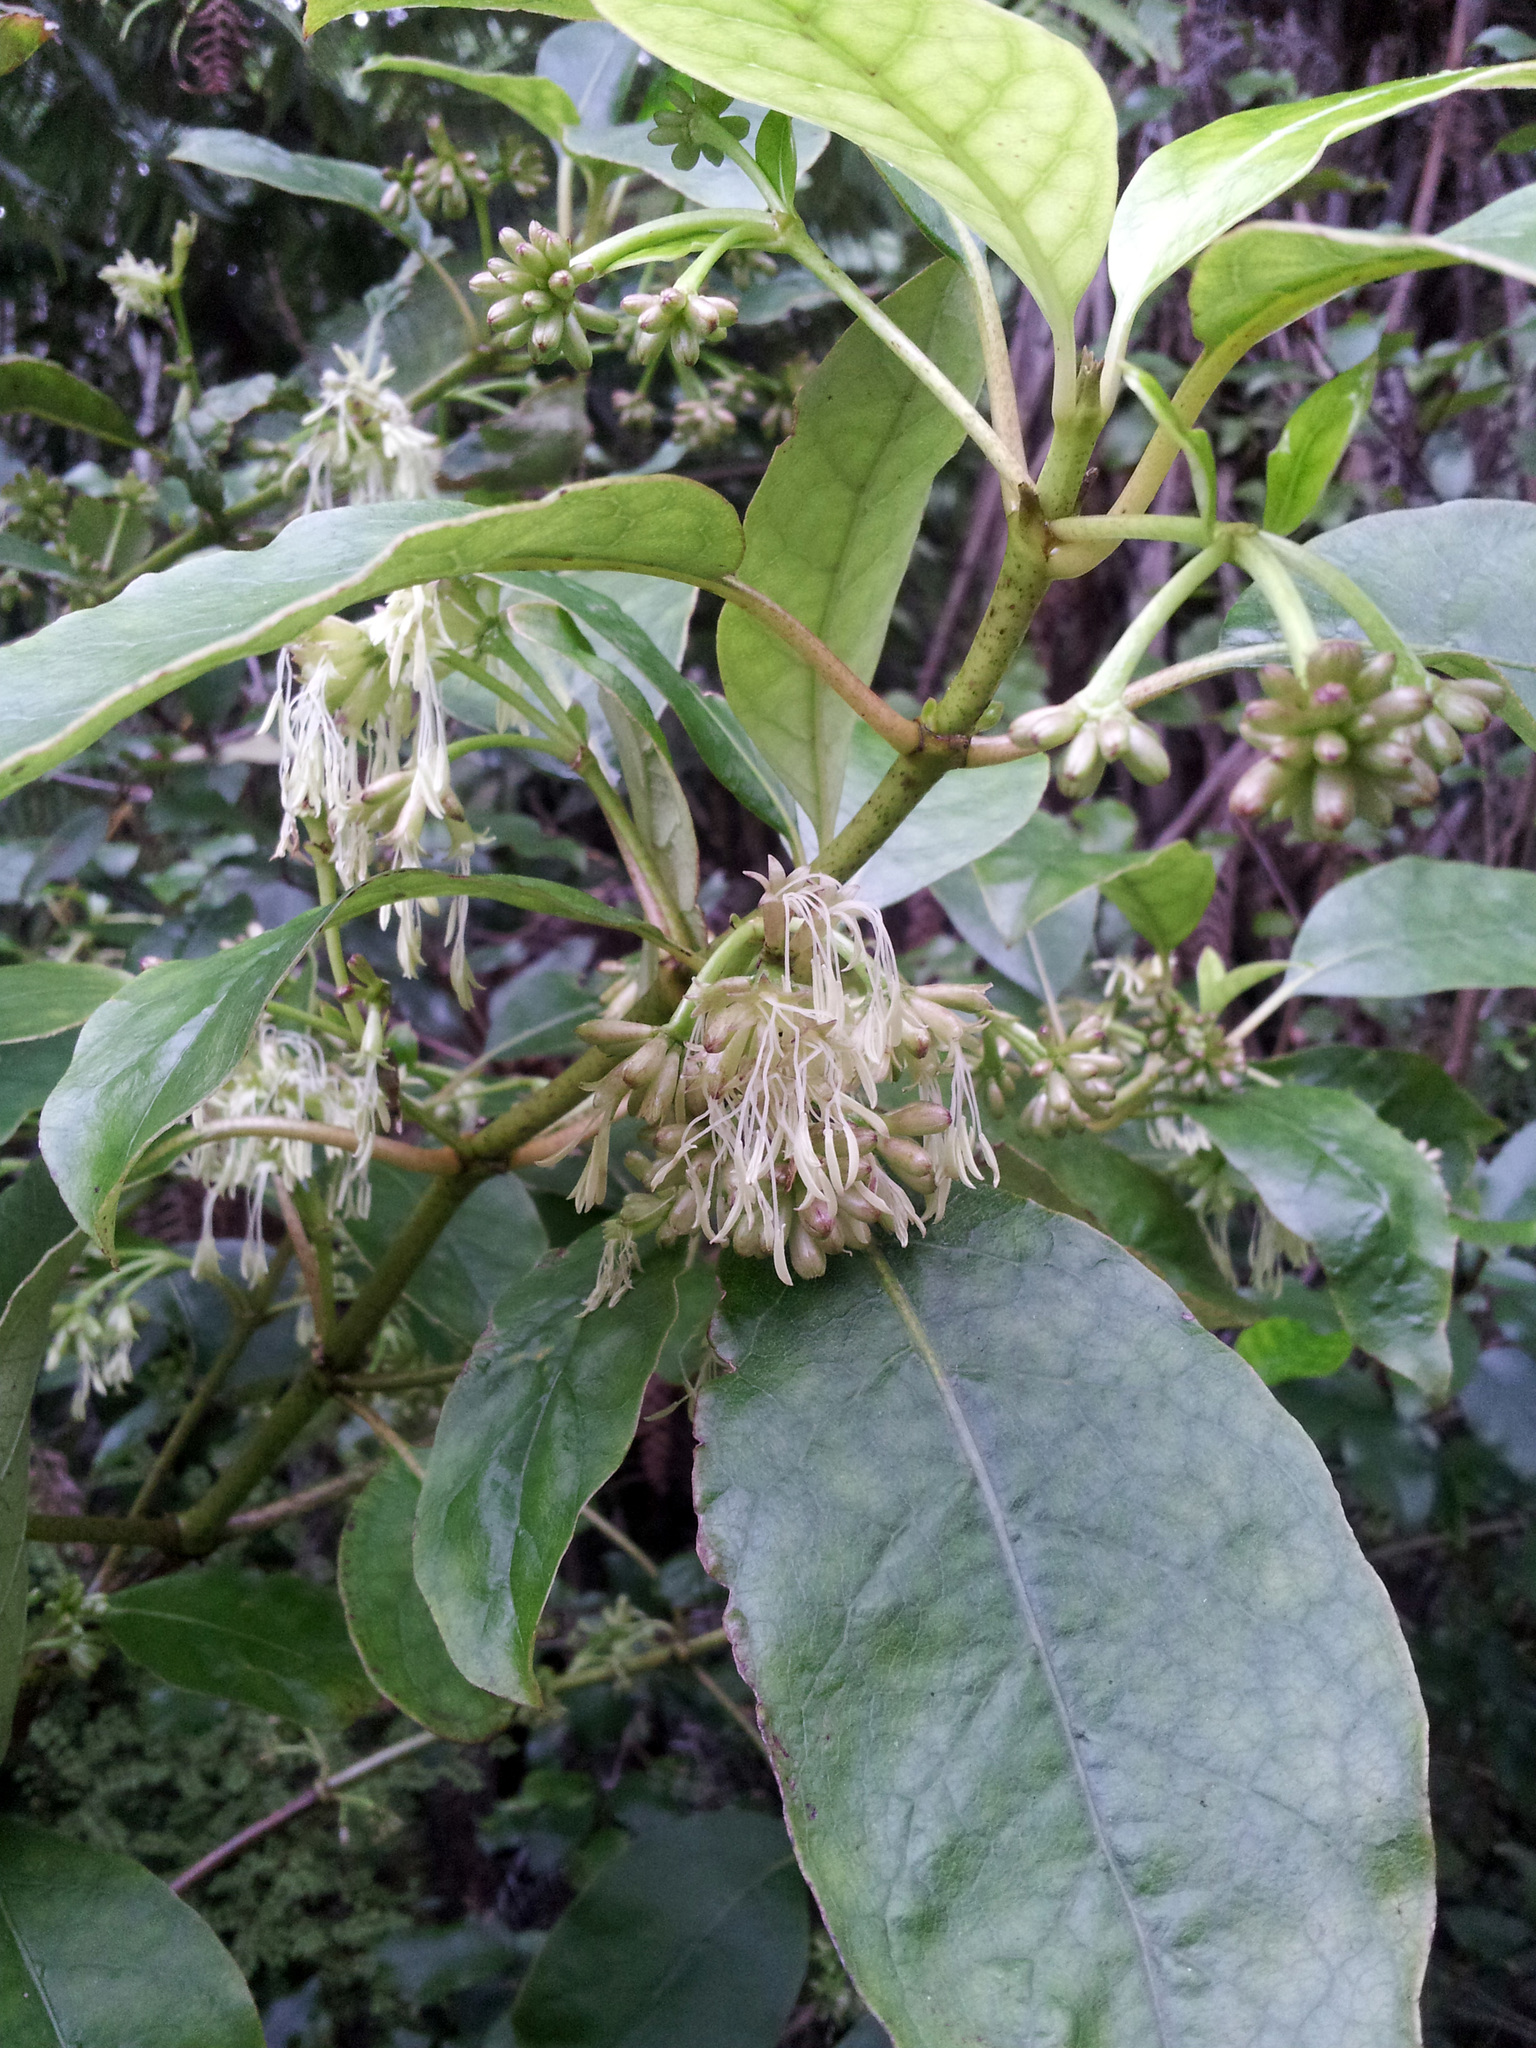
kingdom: Plantae
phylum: Tracheophyta
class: Magnoliopsida
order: Gentianales
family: Rubiaceae
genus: Coprosma
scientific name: Coprosma autumnalis
